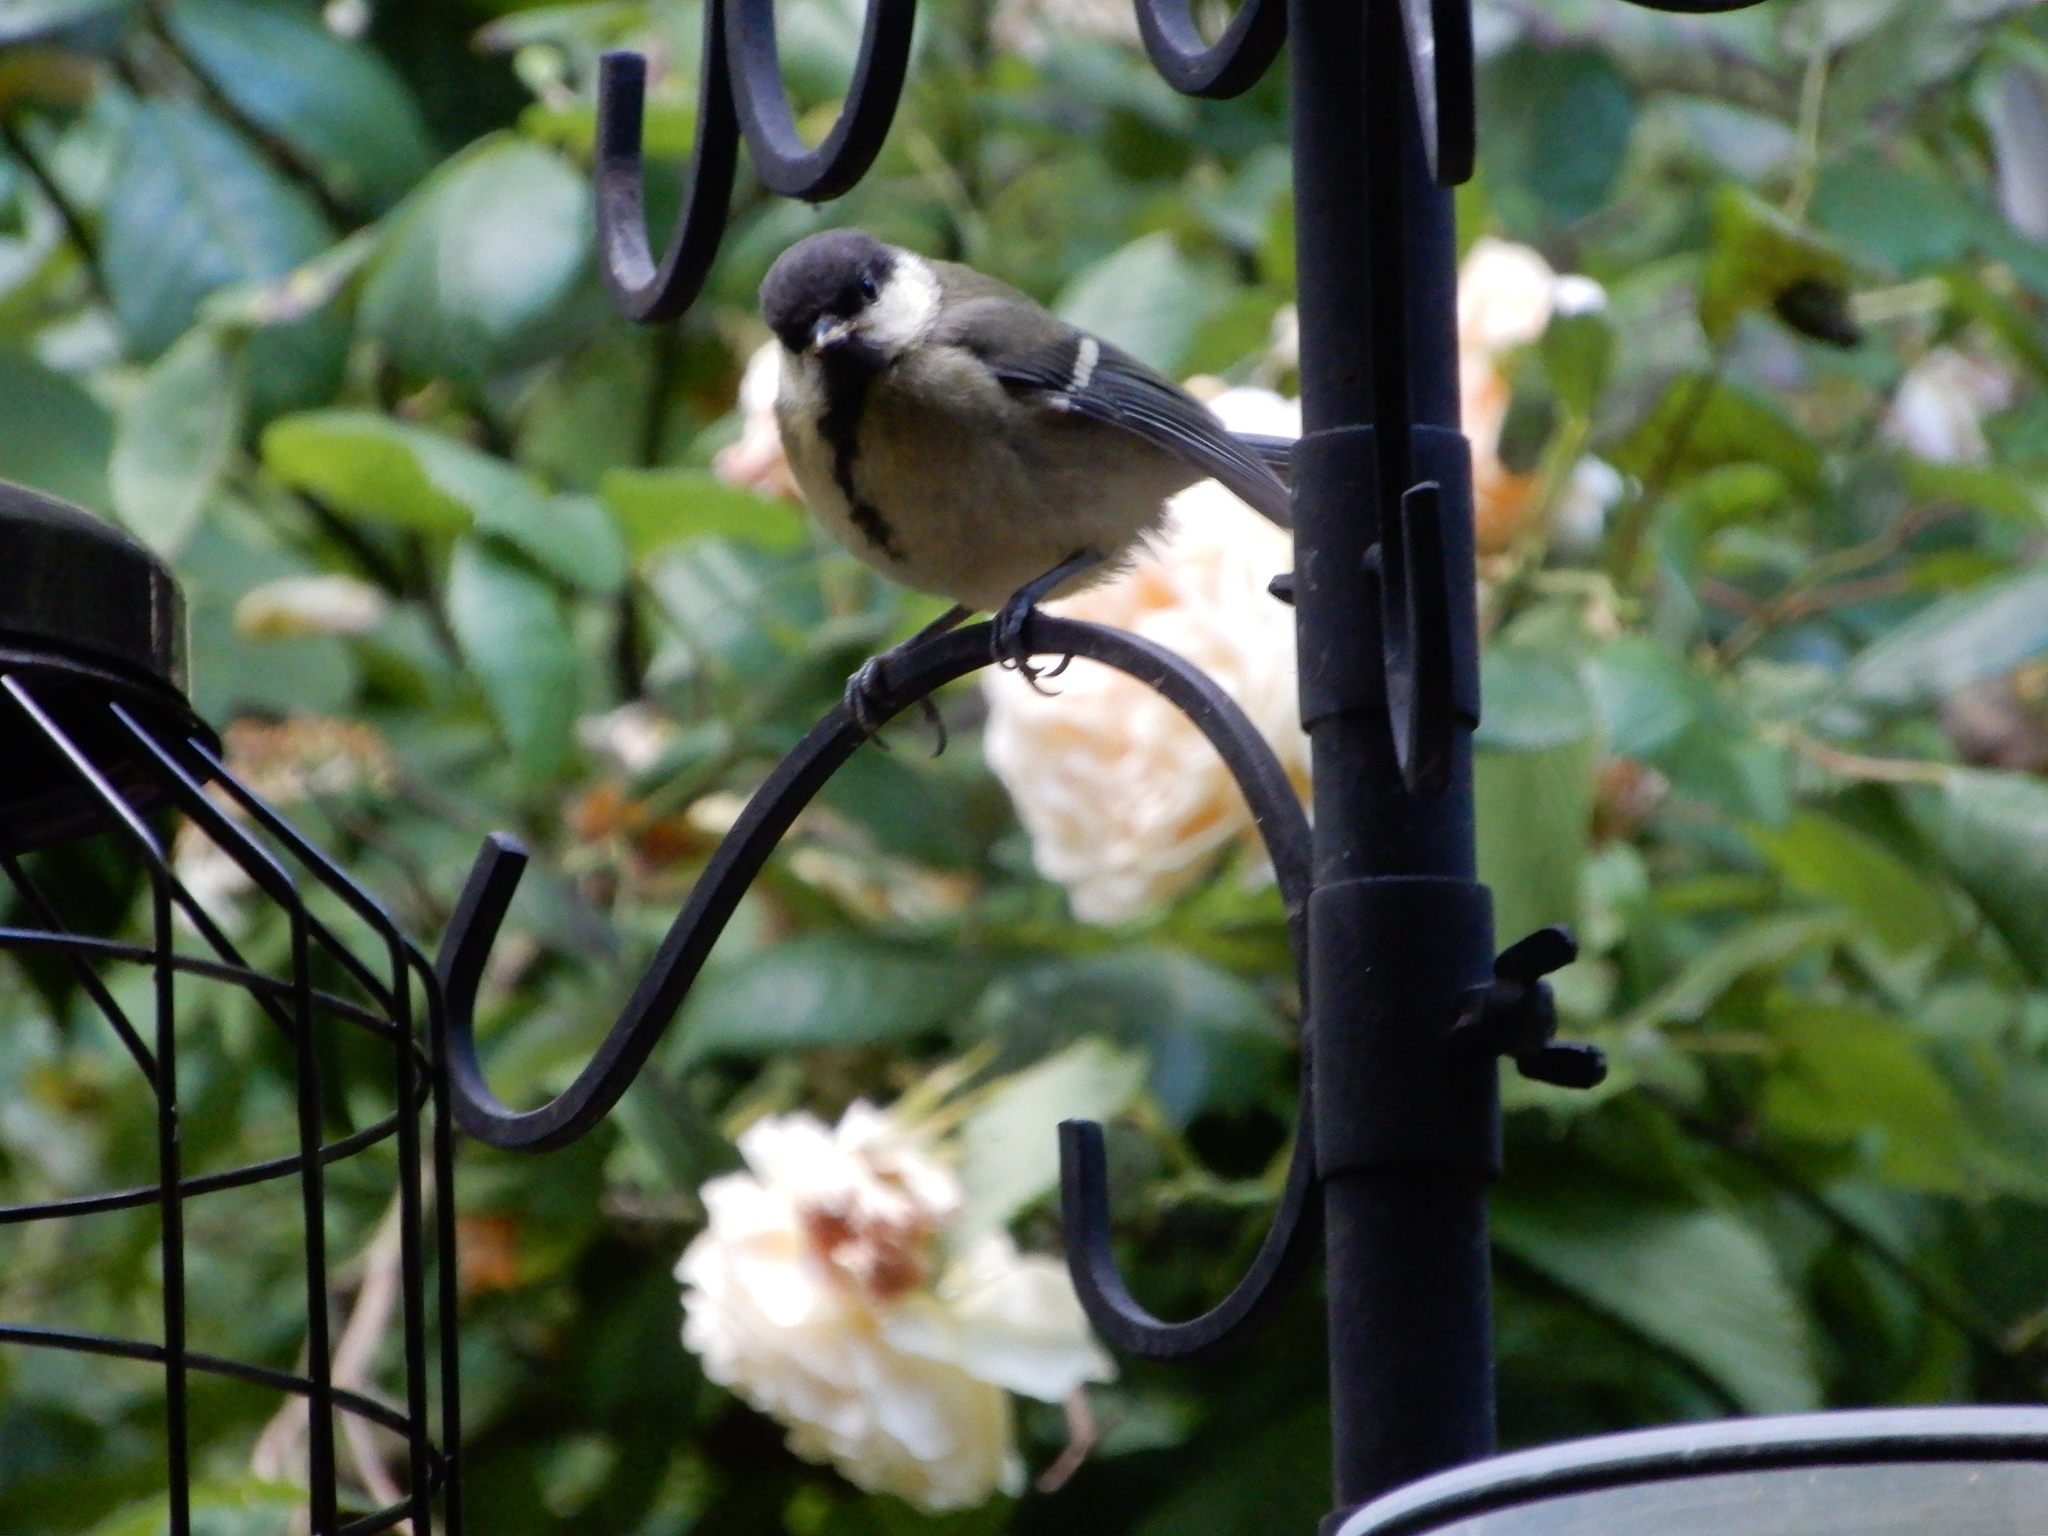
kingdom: Animalia
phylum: Chordata
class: Aves
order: Passeriformes
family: Paridae
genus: Parus
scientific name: Parus major
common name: Great tit
